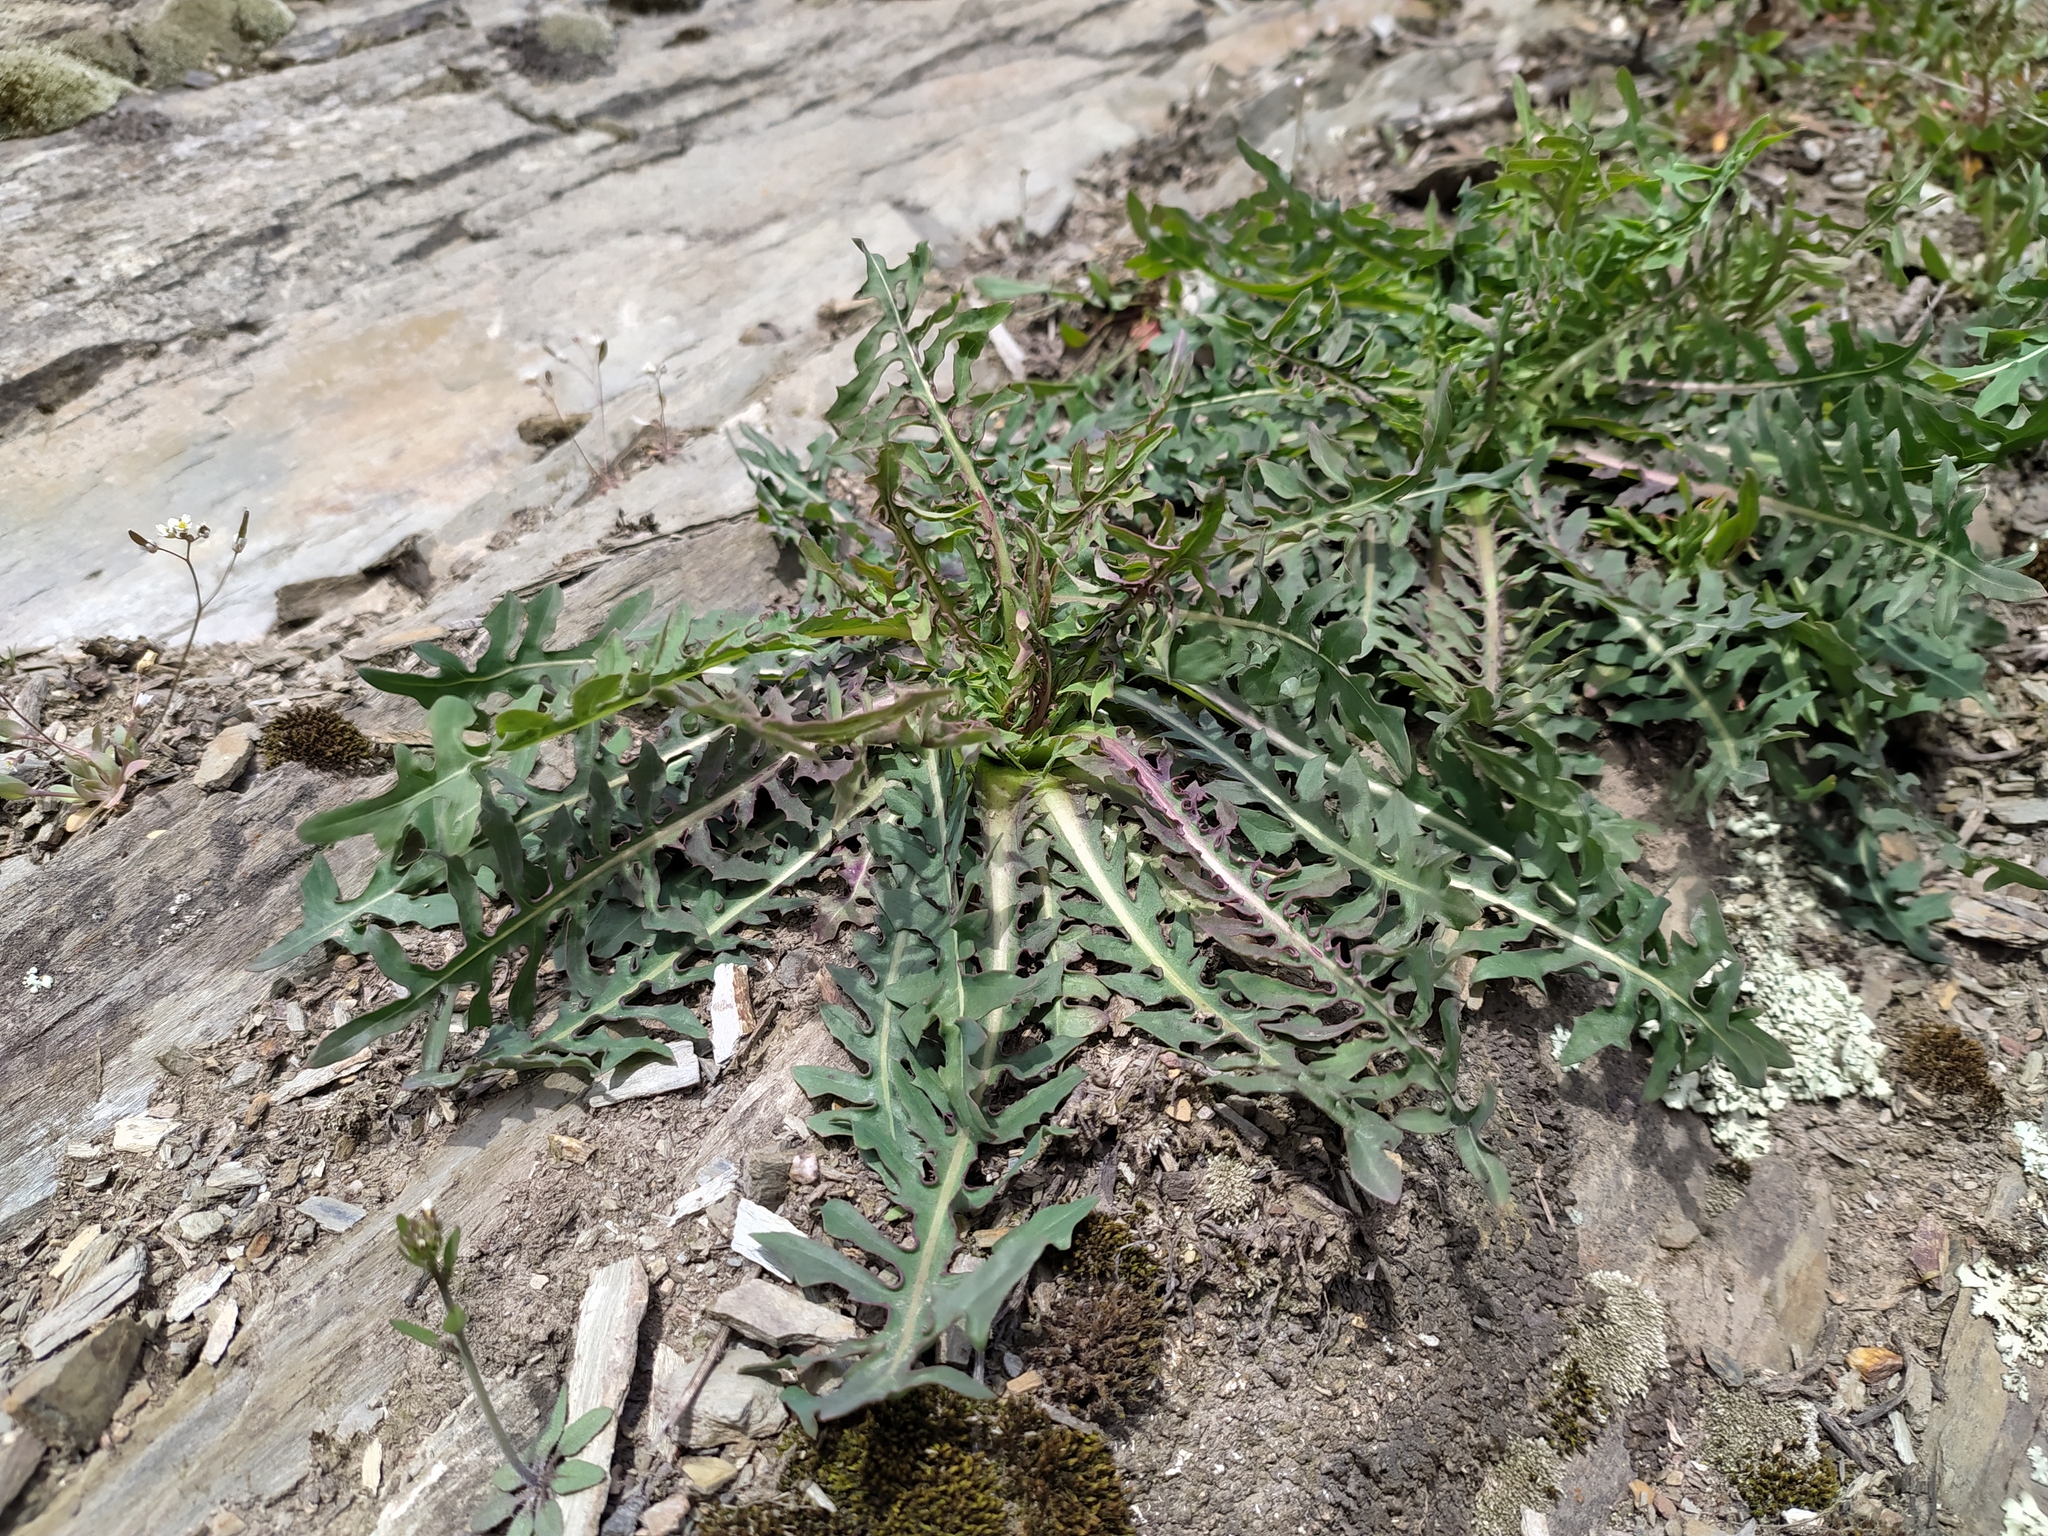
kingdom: Plantae
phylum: Tracheophyta
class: Magnoliopsida
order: Asterales
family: Asteraceae
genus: Lactuca
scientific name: Lactuca perennis
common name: Mountain lettuce
